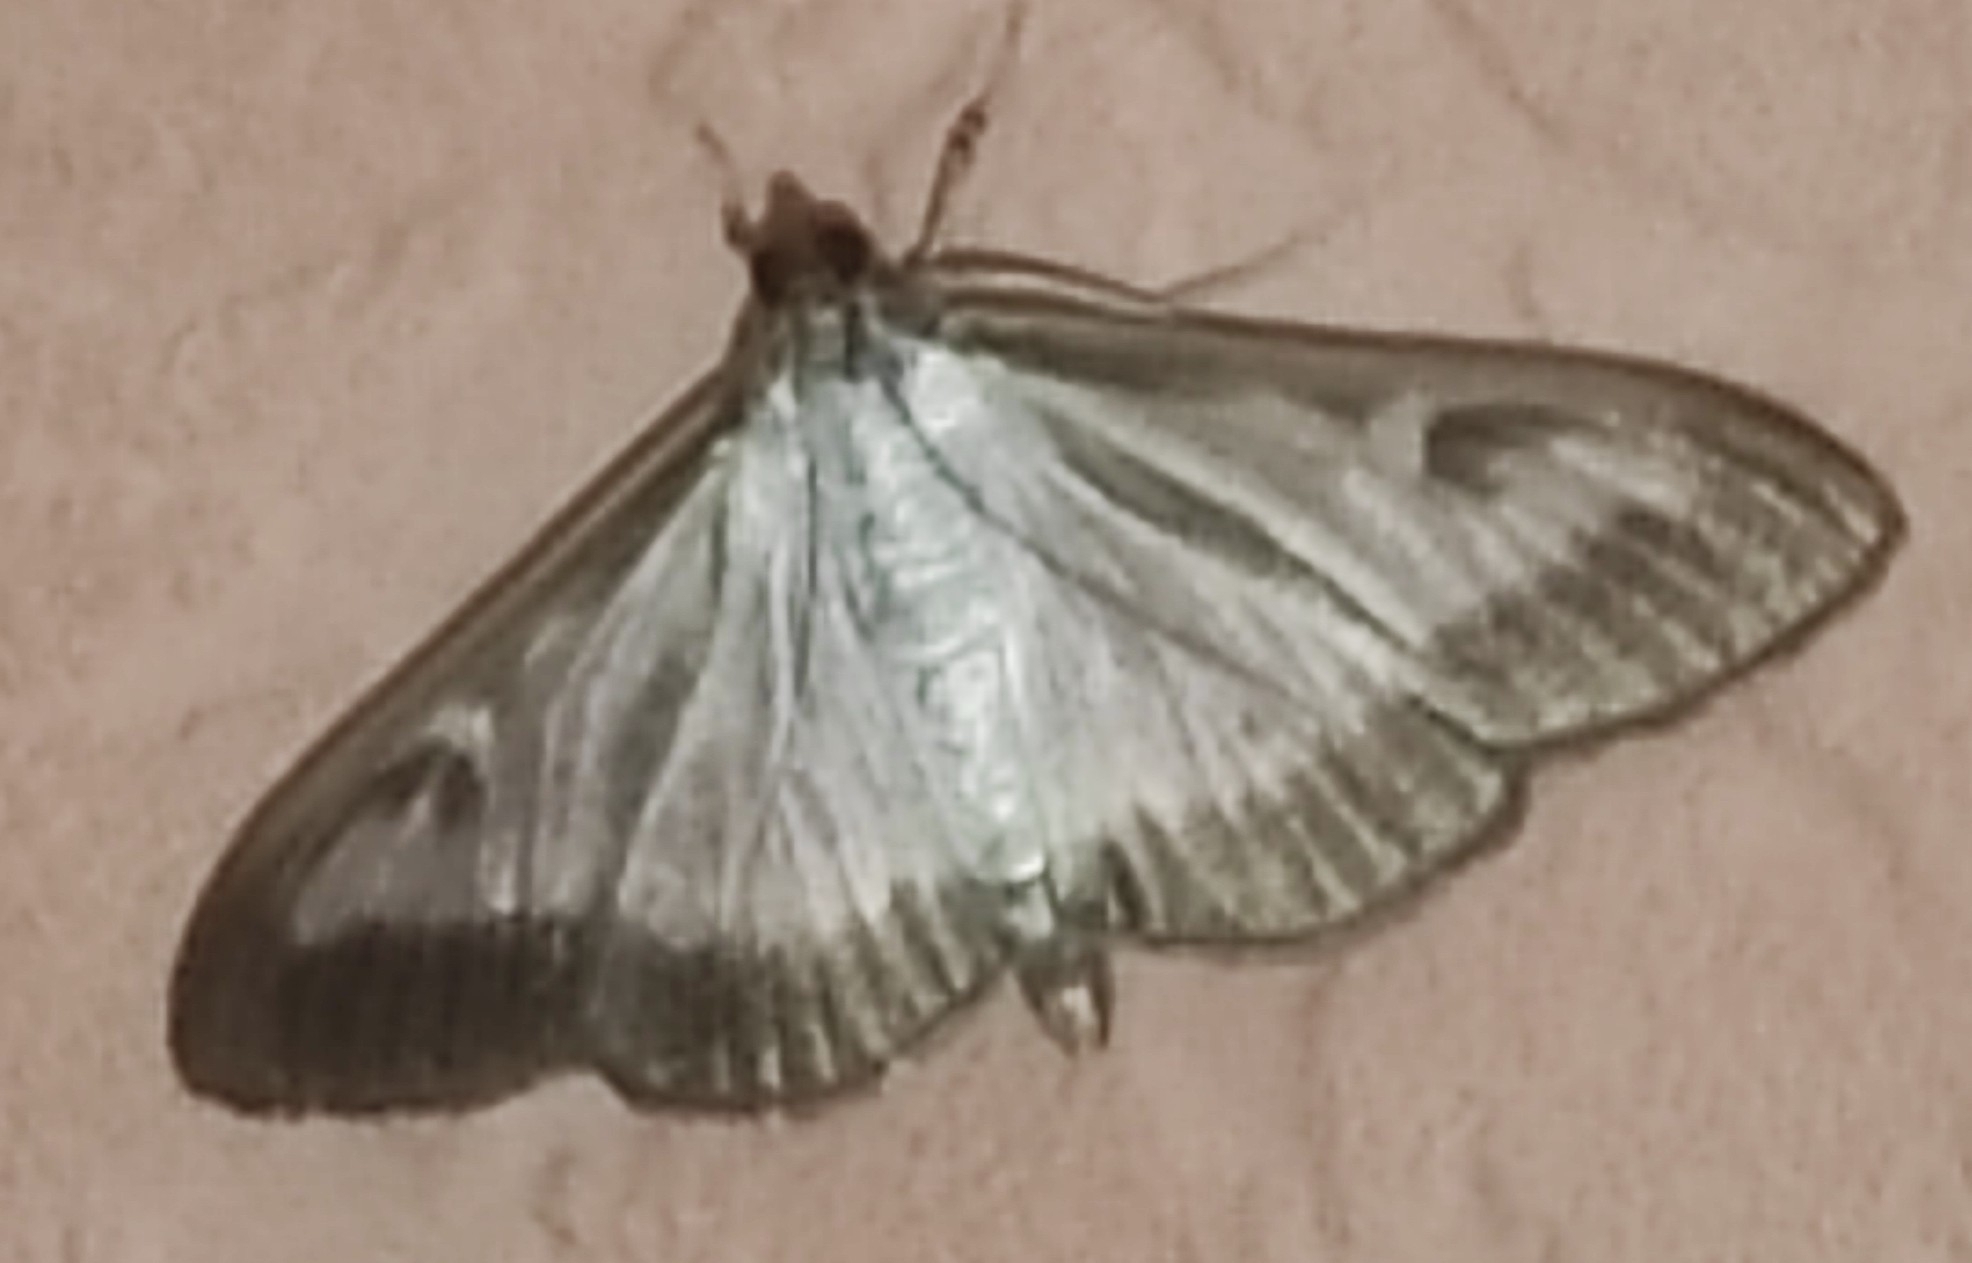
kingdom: Animalia
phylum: Arthropoda
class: Insecta
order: Lepidoptera
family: Crambidae
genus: Cydalima
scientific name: Cydalima perspectalis
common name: Box tree moth
